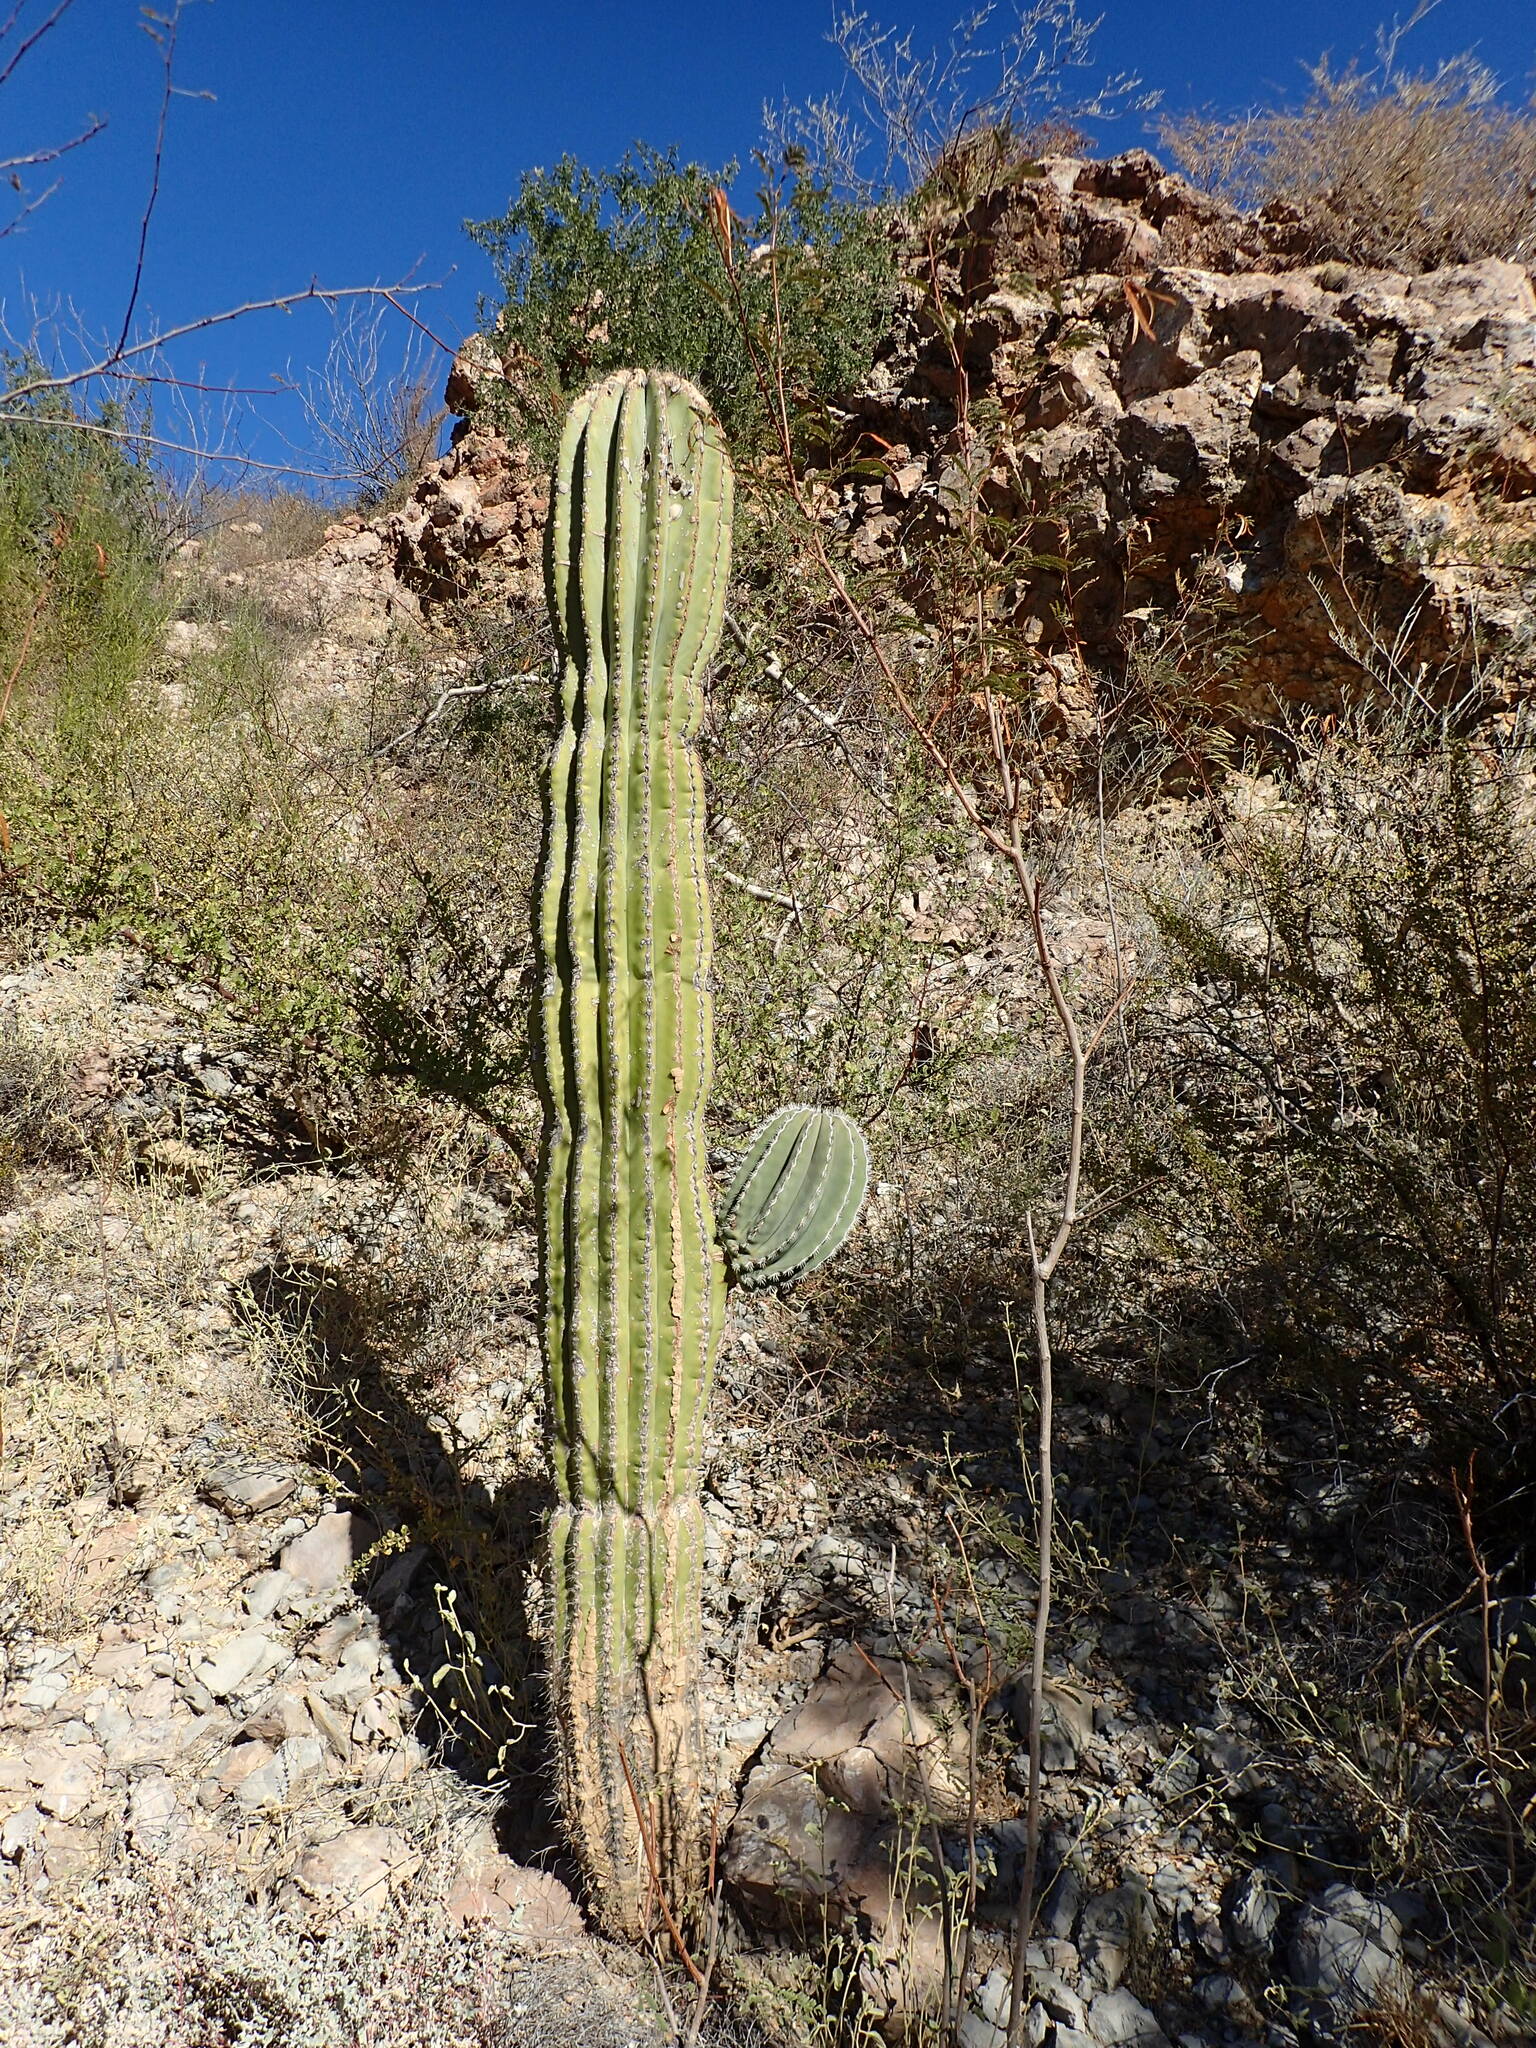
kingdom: Plantae
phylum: Tracheophyta
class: Magnoliopsida
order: Caryophyllales
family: Cactaceae
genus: Pachycereus
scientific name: Pachycereus pringlei
